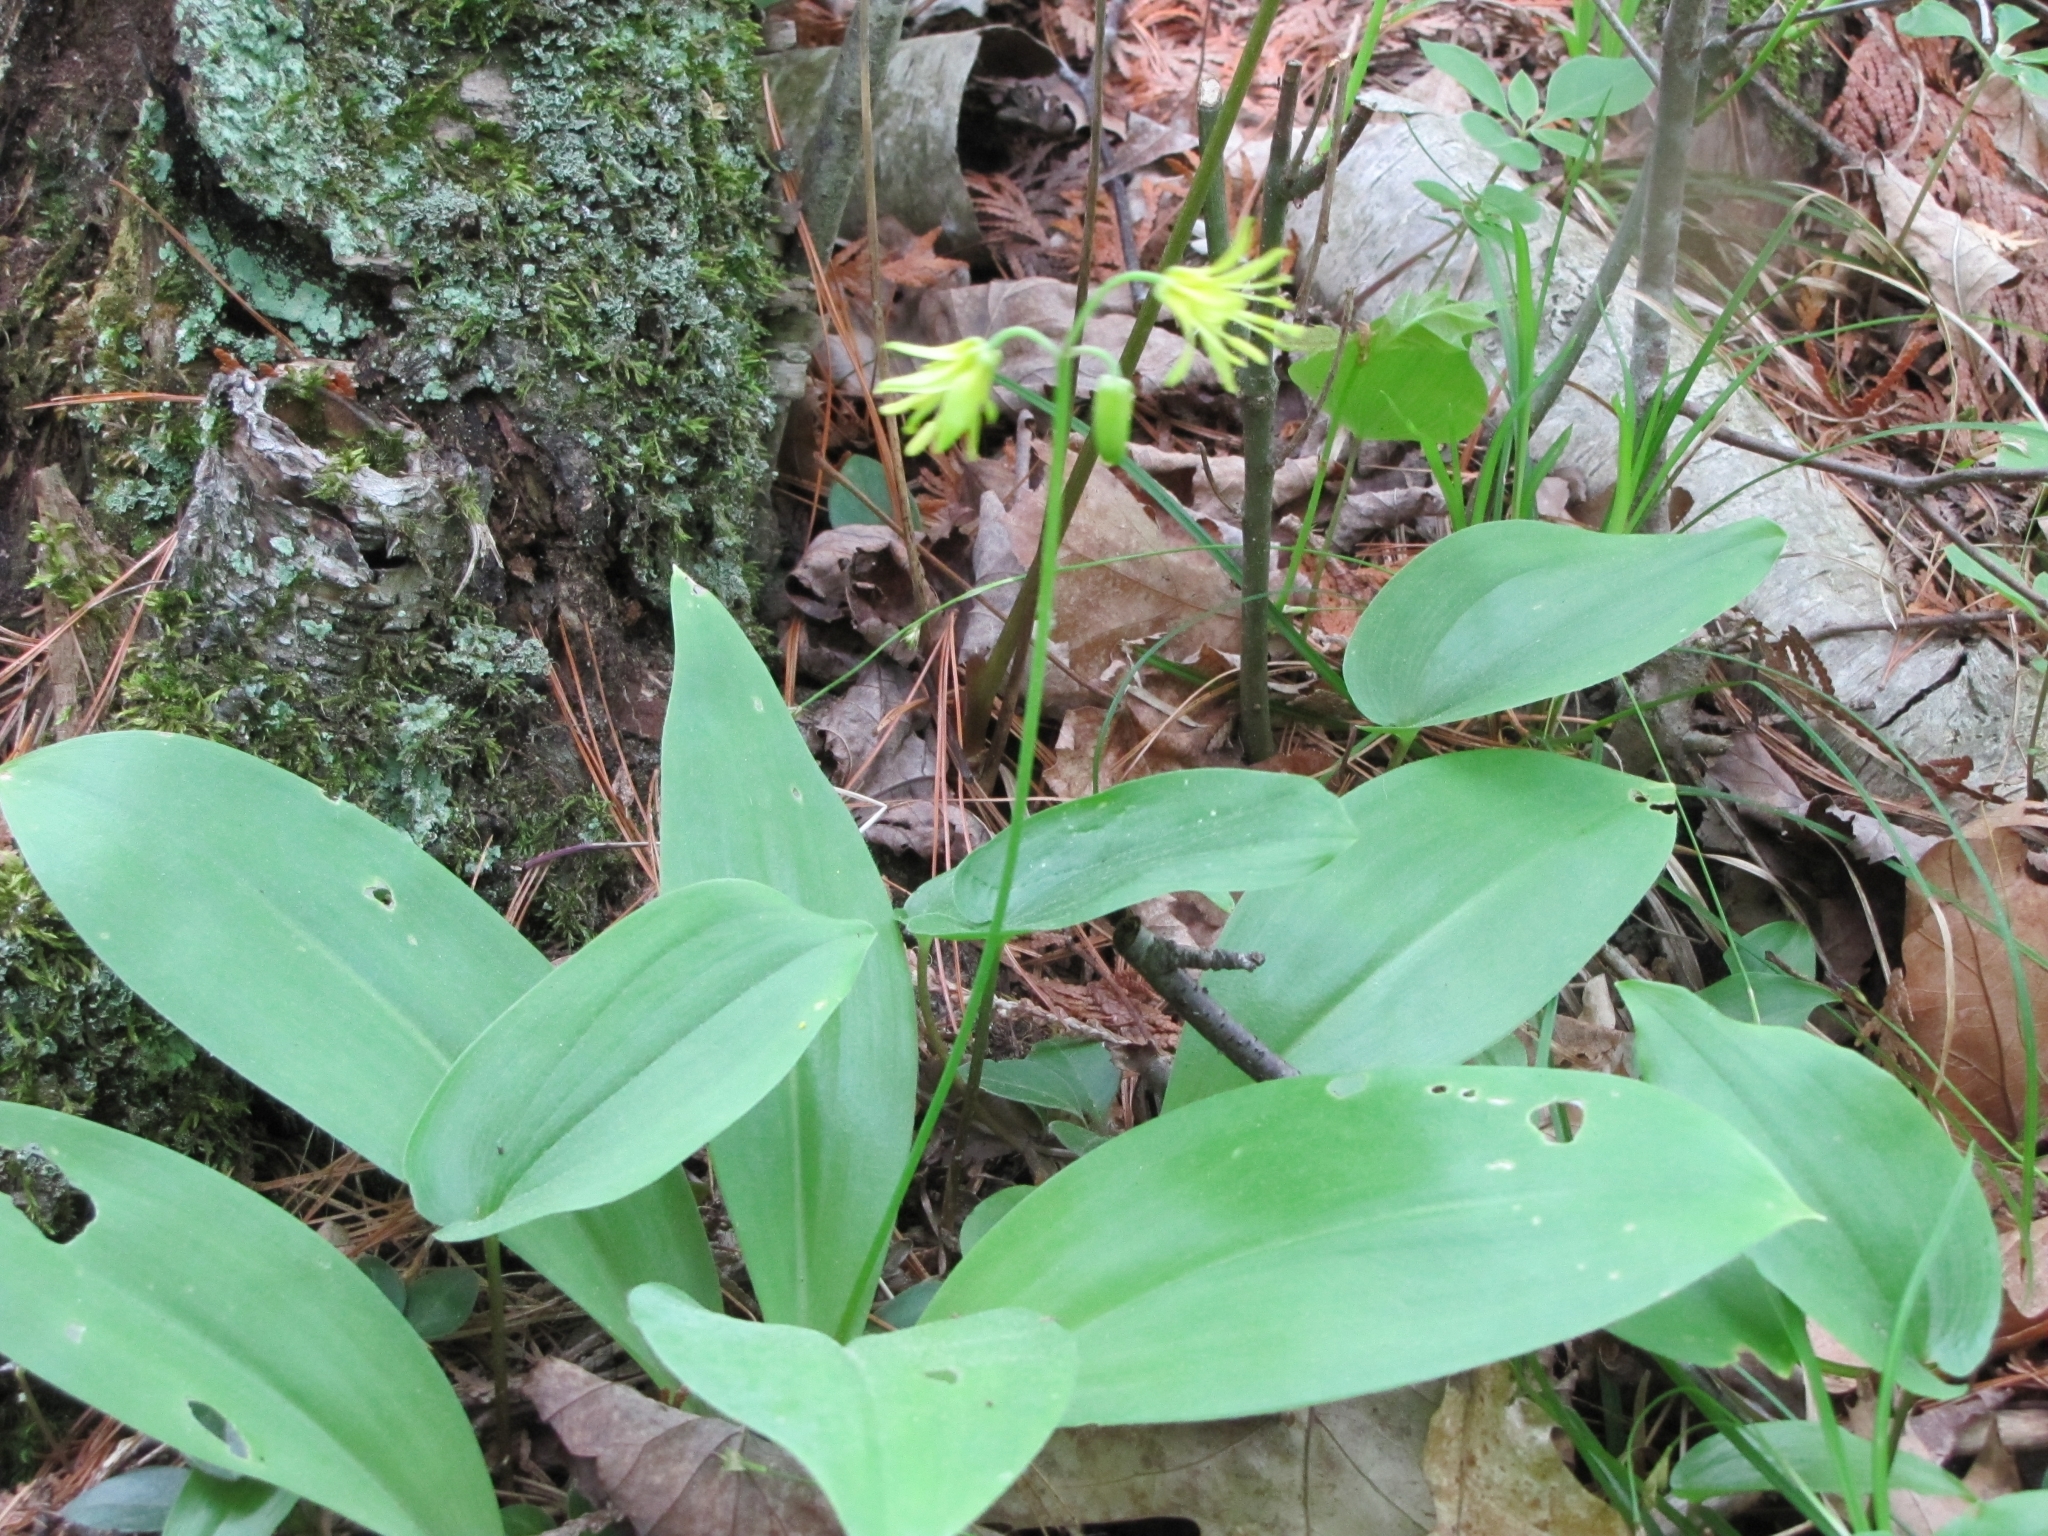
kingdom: Plantae
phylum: Tracheophyta
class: Liliopsida
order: Liliales
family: Liliaceae
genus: Clintonia
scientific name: Clintonia borealis
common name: Yellow clintonia
